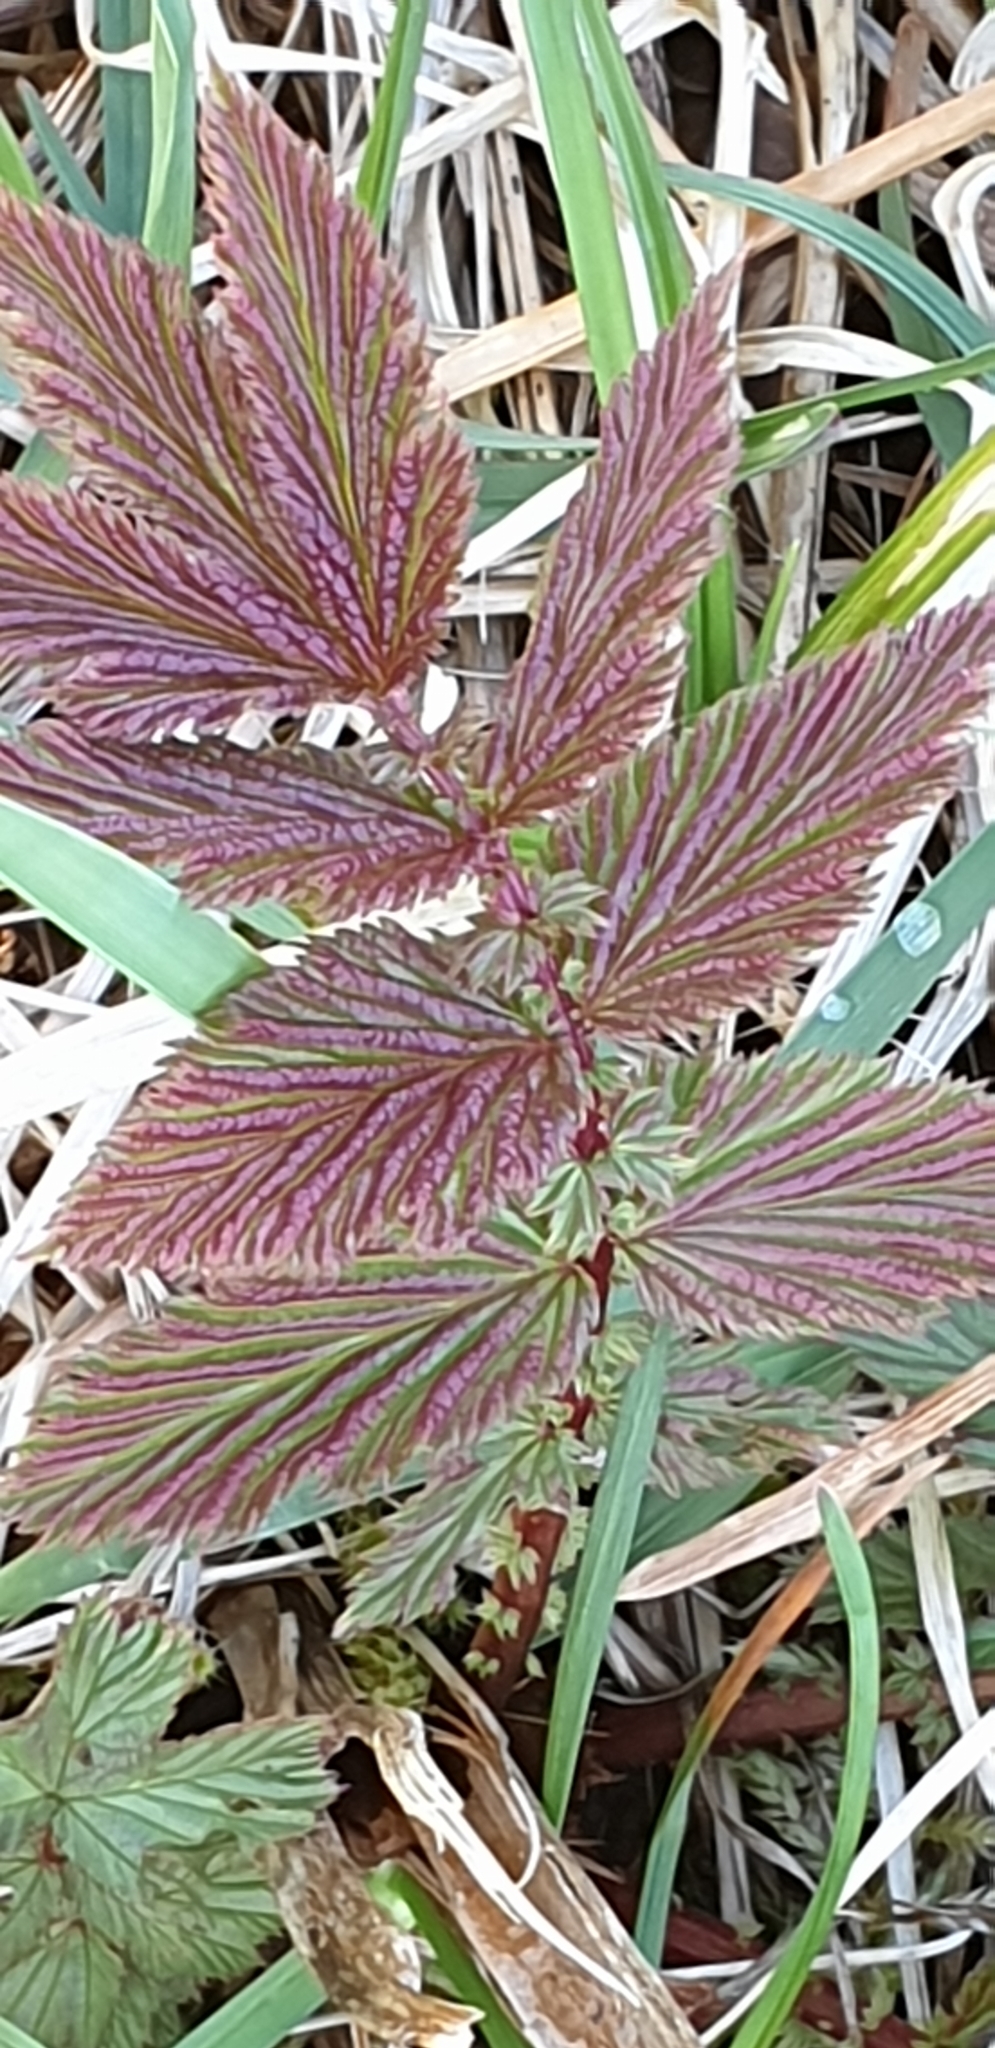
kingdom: Plantae
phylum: Tracheophyta
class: Magnoliopsida
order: Rosales
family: Rosaceae
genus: Filipendula
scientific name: Filipendula ulmaria
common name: Meadowsweet
